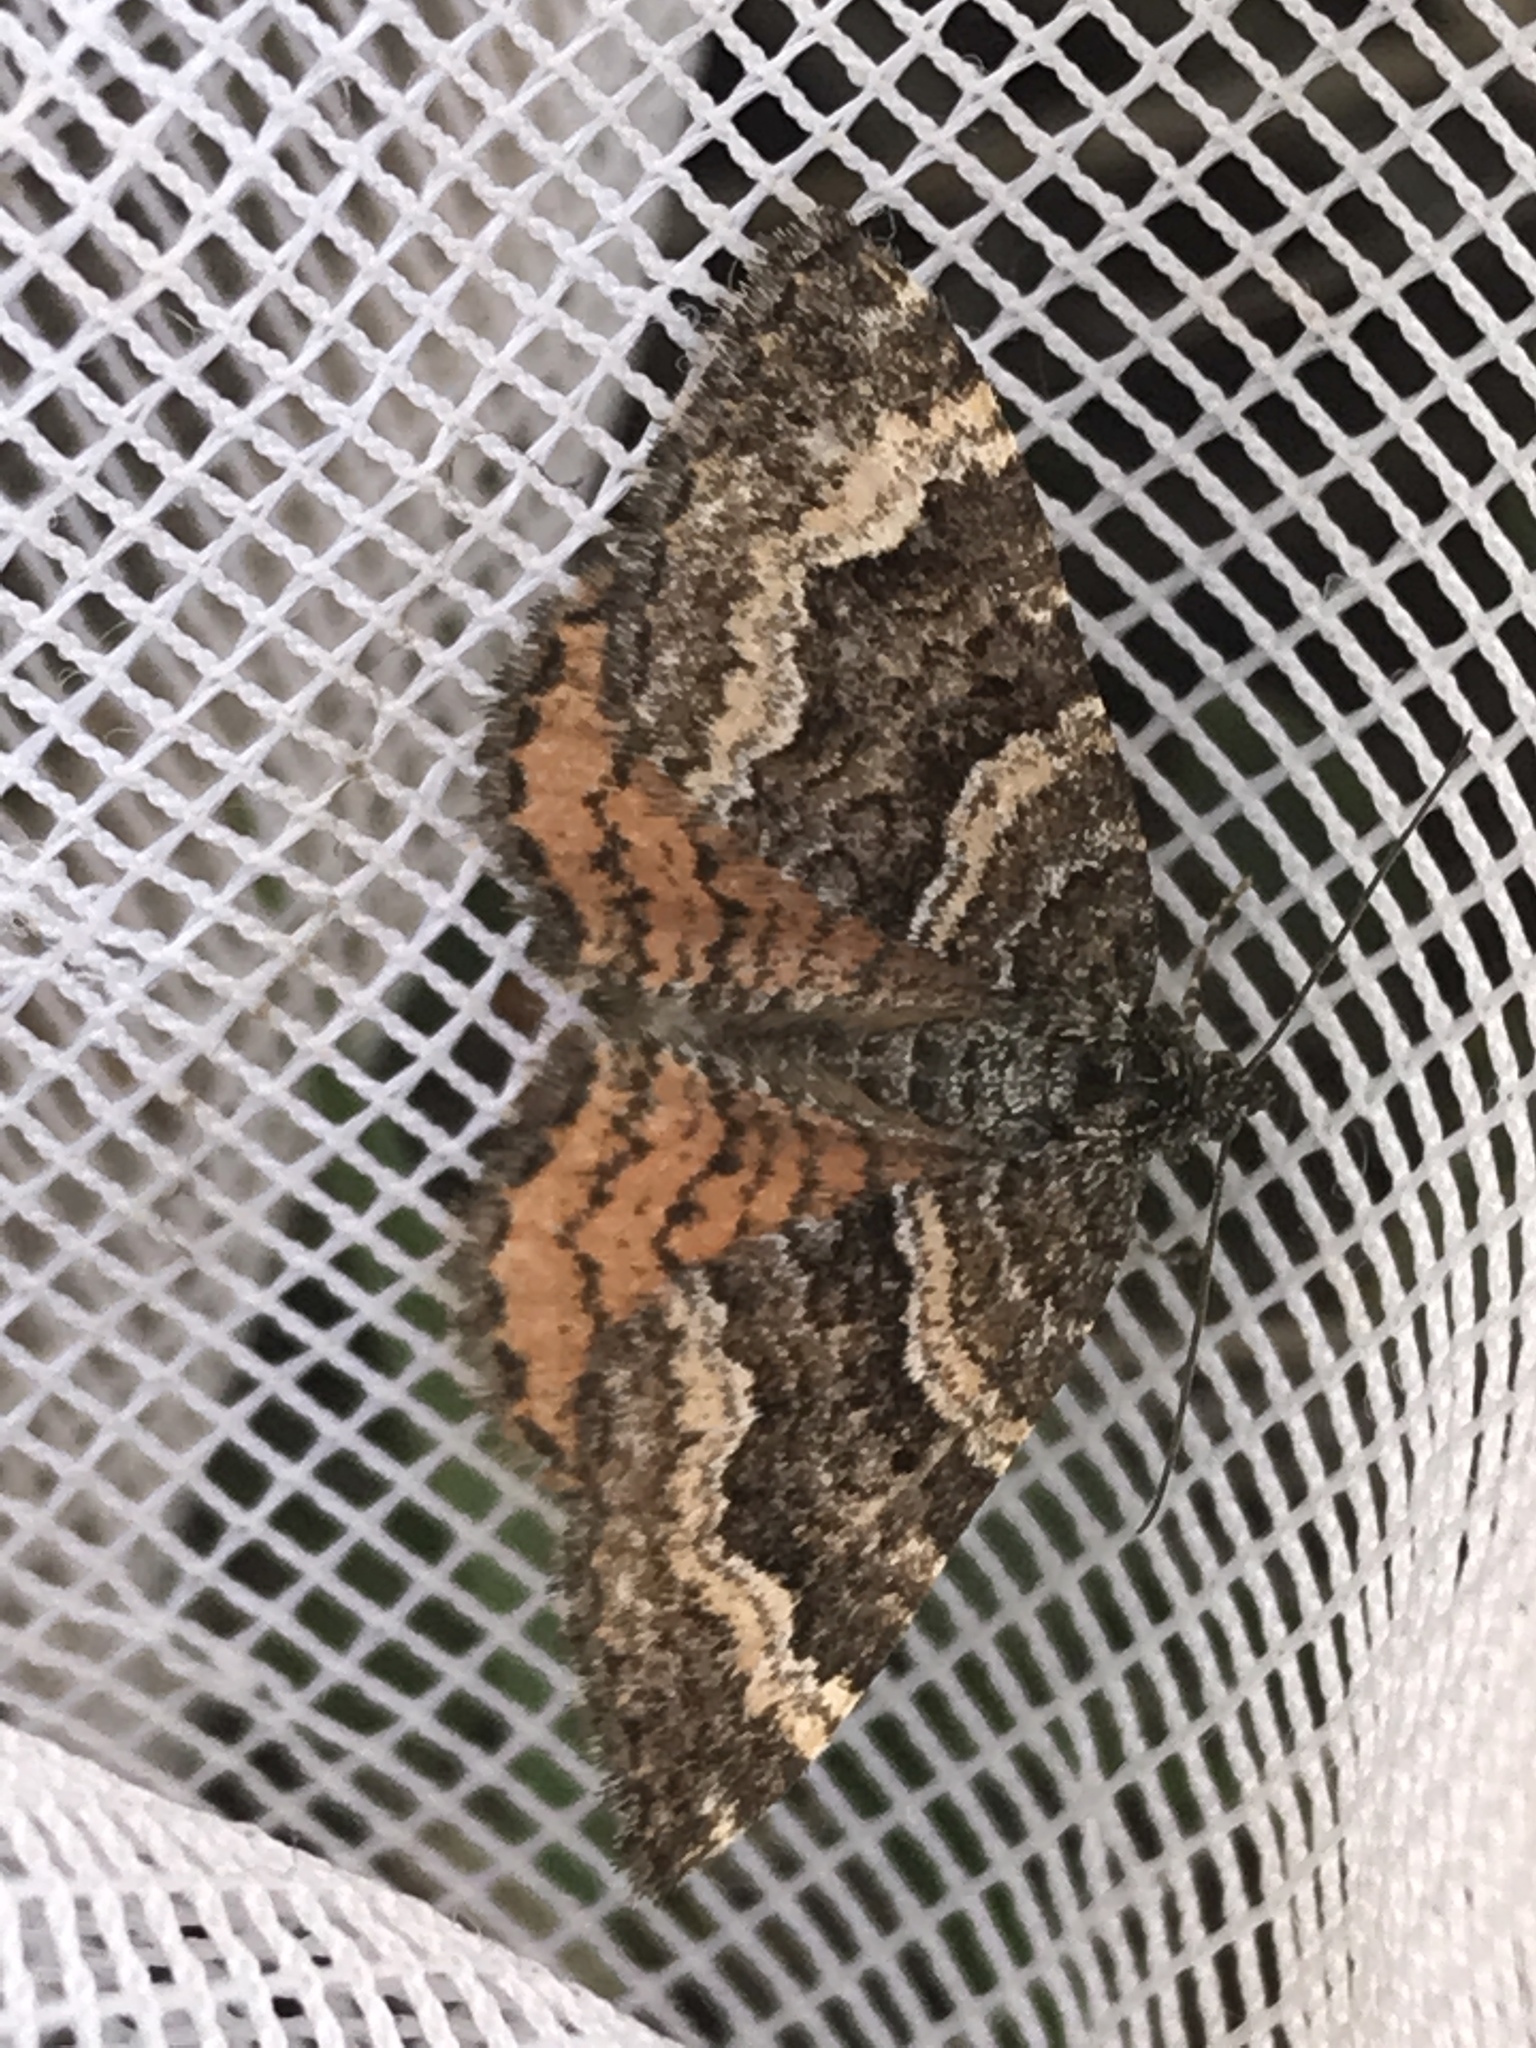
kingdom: Animalia
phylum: Arthropoda
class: Insecta
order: Lepidoptera
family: Geometridae
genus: Epirrhoe
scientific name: Epirrhoe plebeculata
